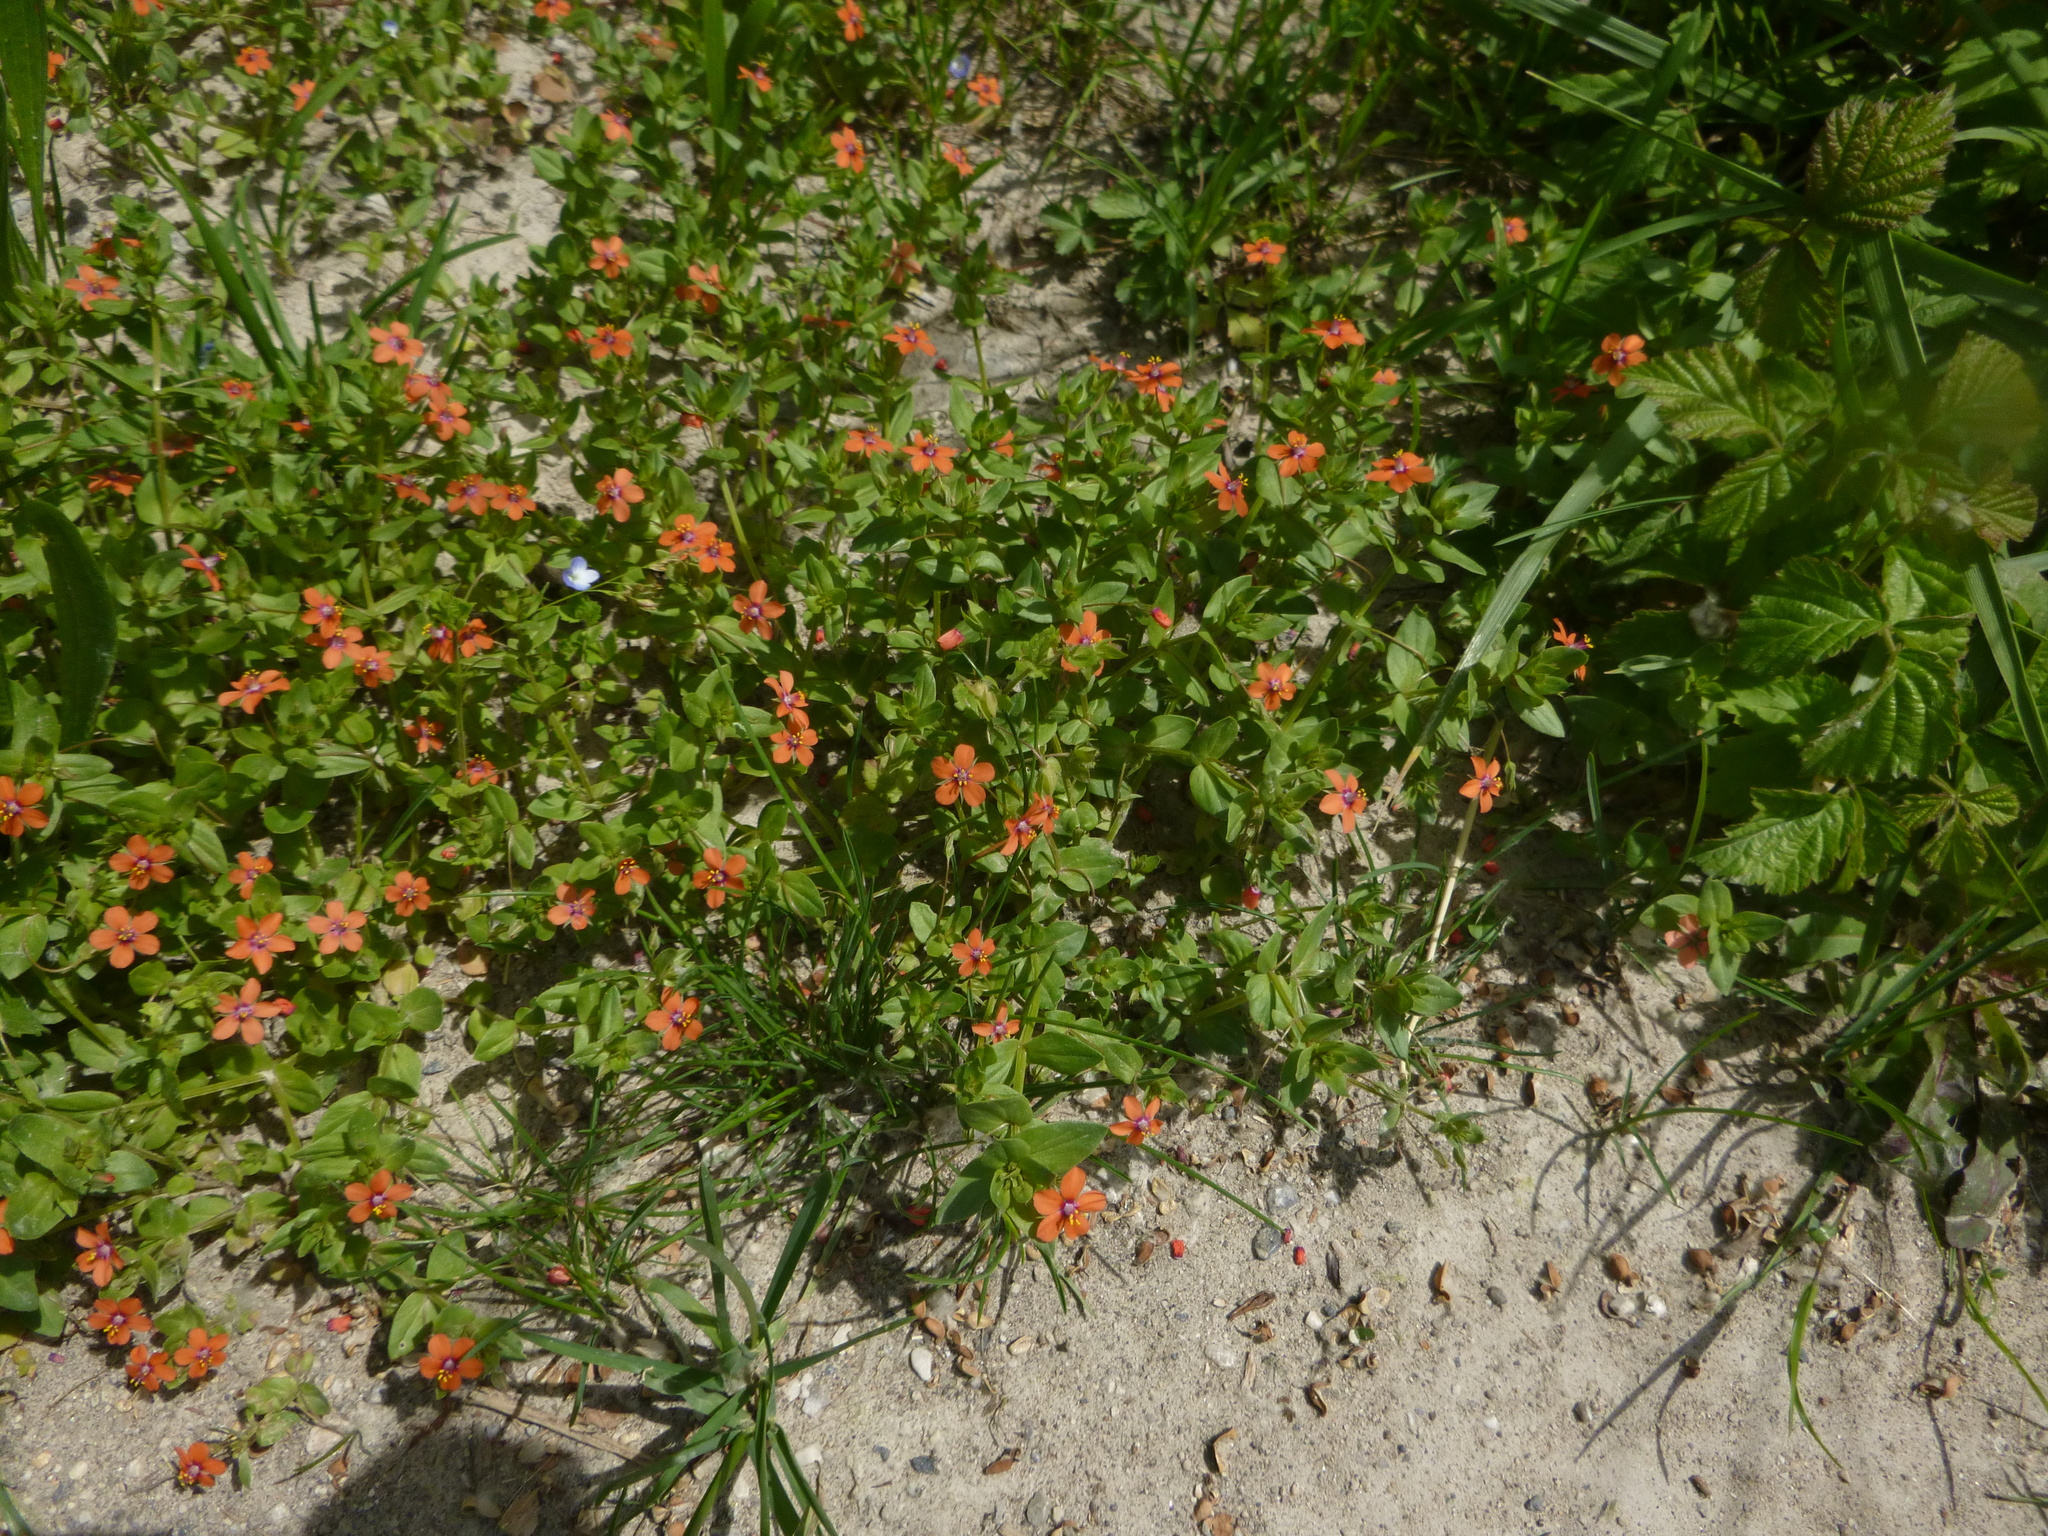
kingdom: Plantae
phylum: Tracheophyta
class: Magnoliopsida
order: Ericales
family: Primulaceae
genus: Lysimachia
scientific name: Lysimachia arvensis
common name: Scarlet pimpernel
